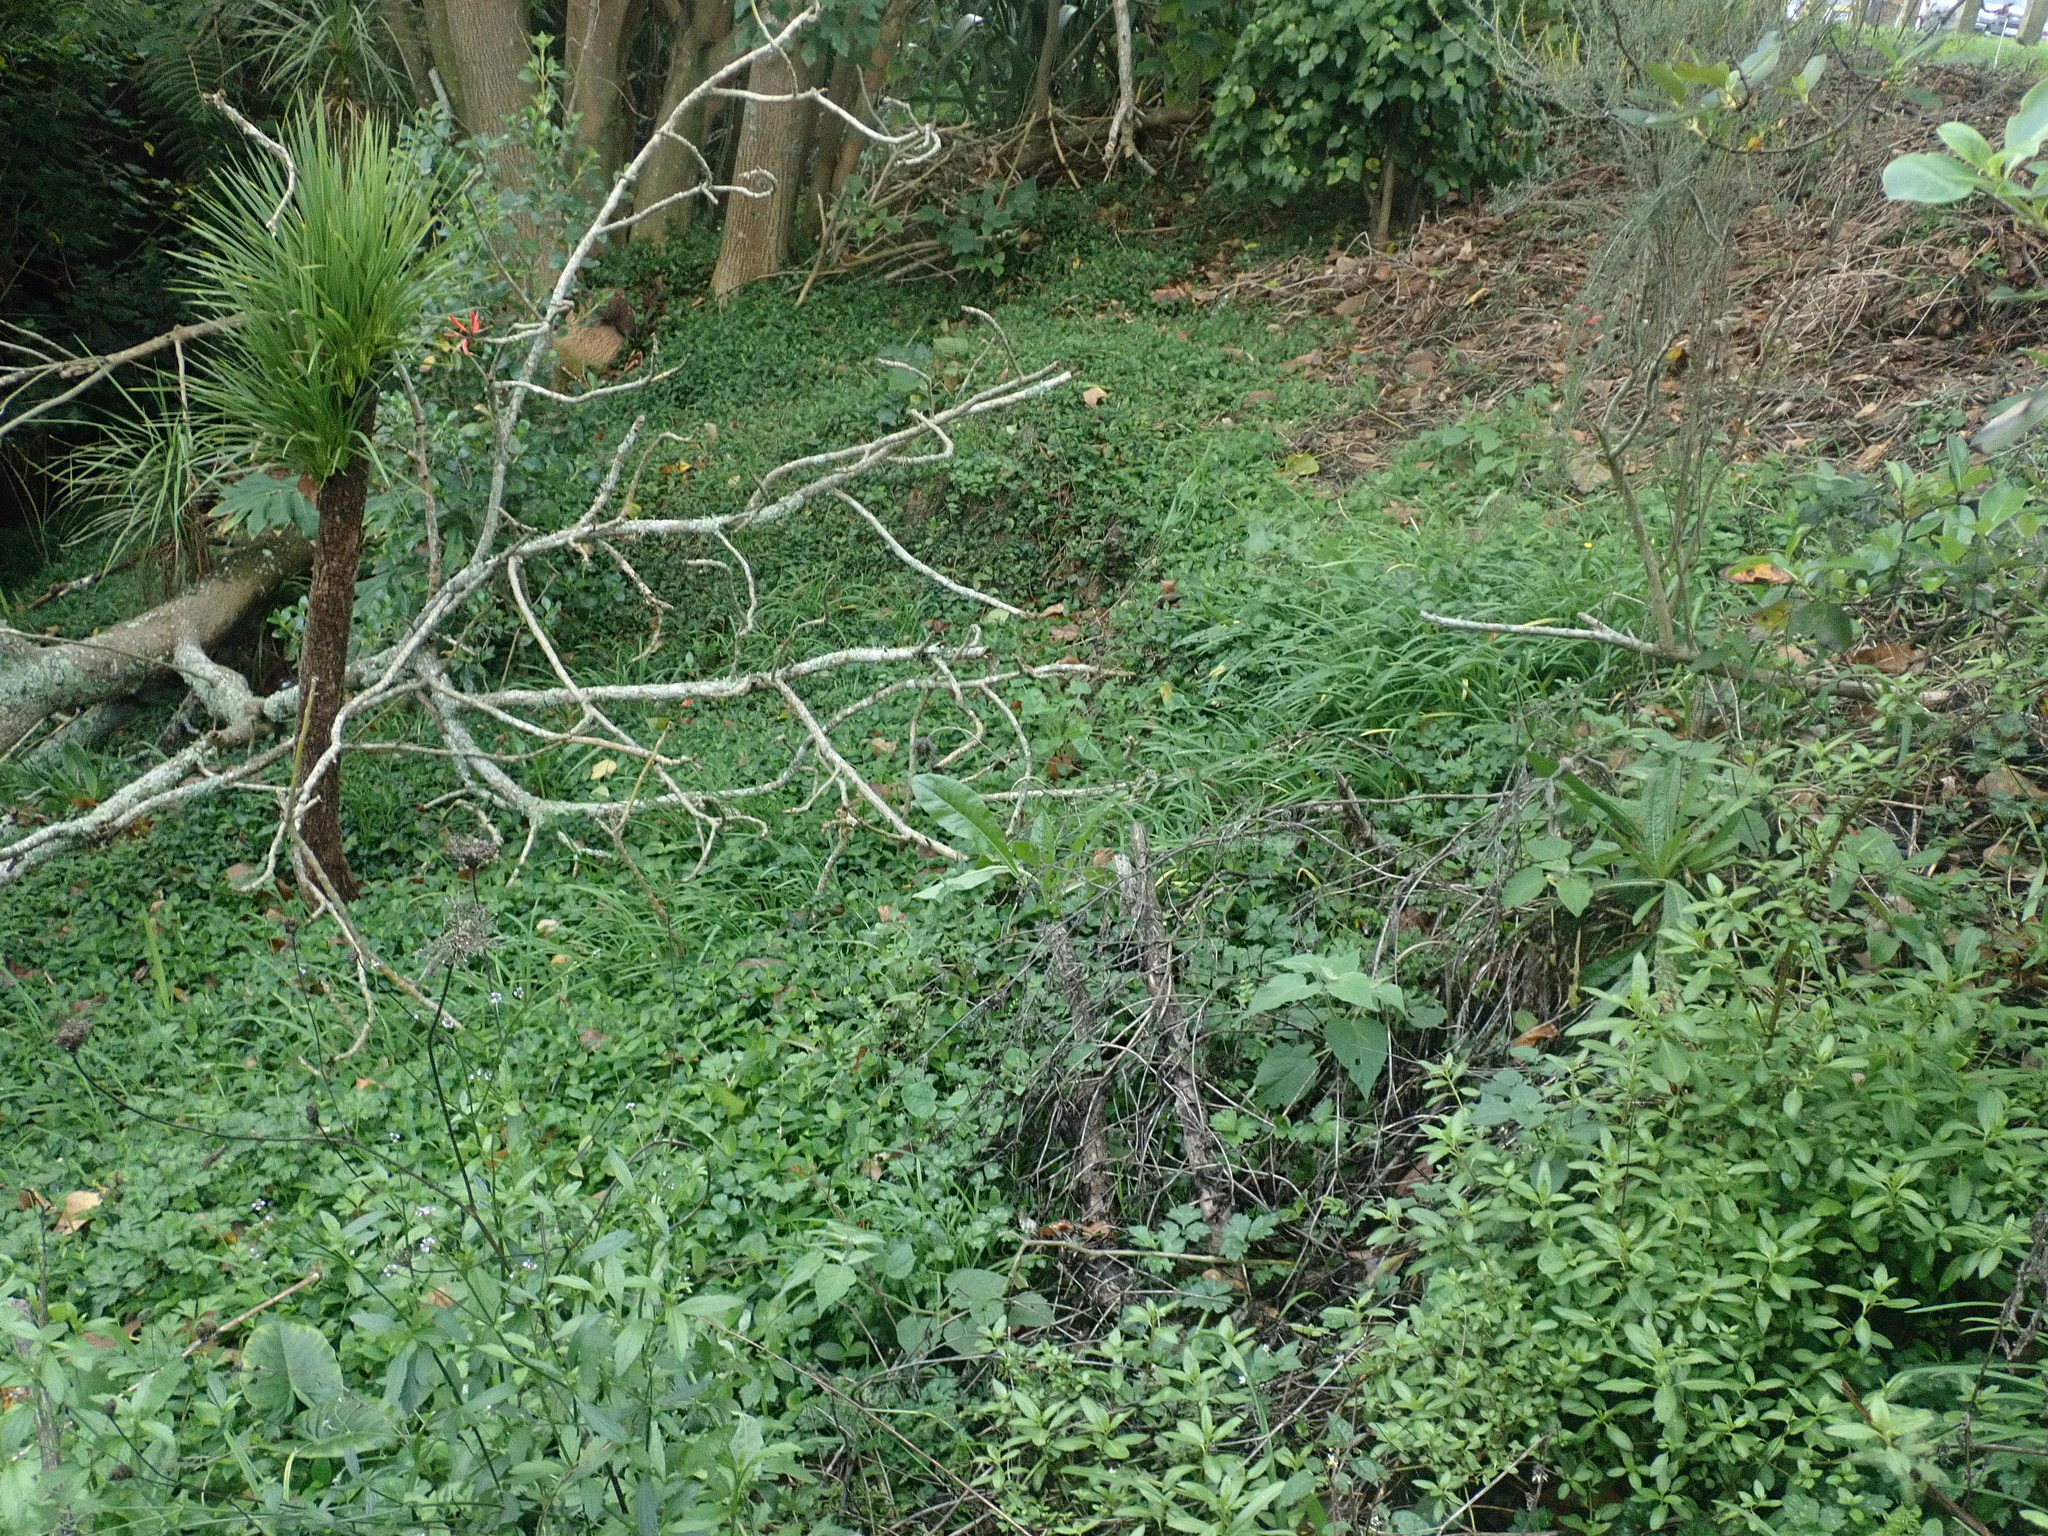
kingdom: Plantae
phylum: Tracheophyta
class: Magnoliopsida
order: Solanales
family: Solanaceae
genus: Physalis
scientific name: Physalis peruviana
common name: Cape-gooseberry
